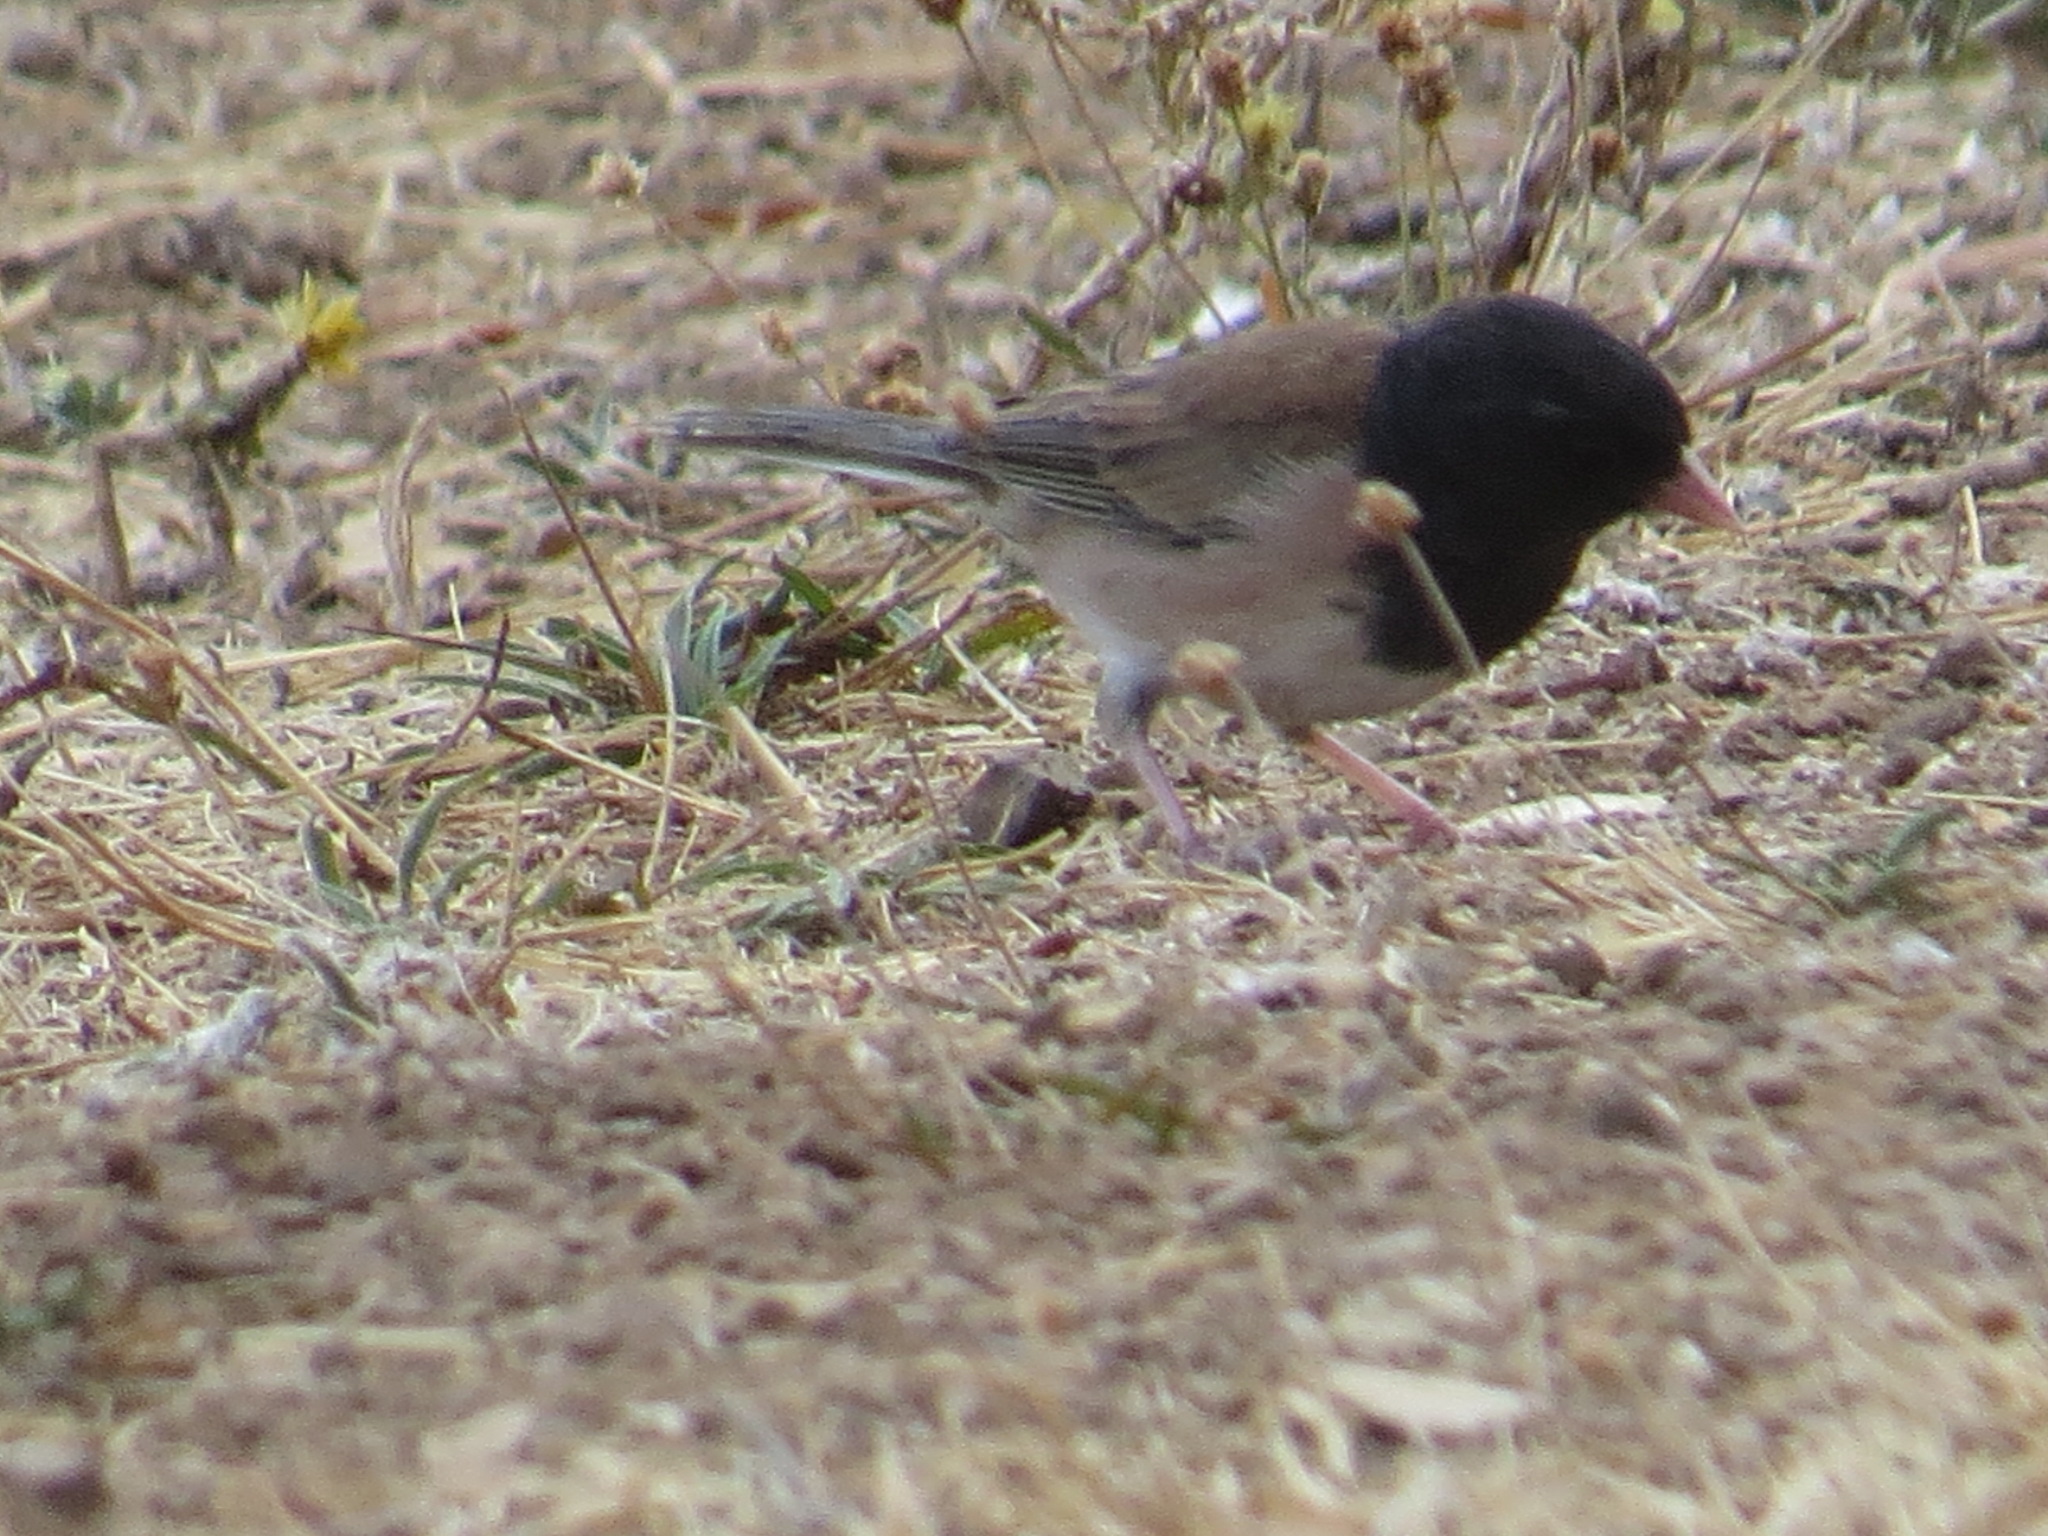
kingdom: Animalia
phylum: Chordata
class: Aves
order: Passeriformes
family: Passerellidae
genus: Junco
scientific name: Junco hyemalis
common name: Dark-eyed junco
